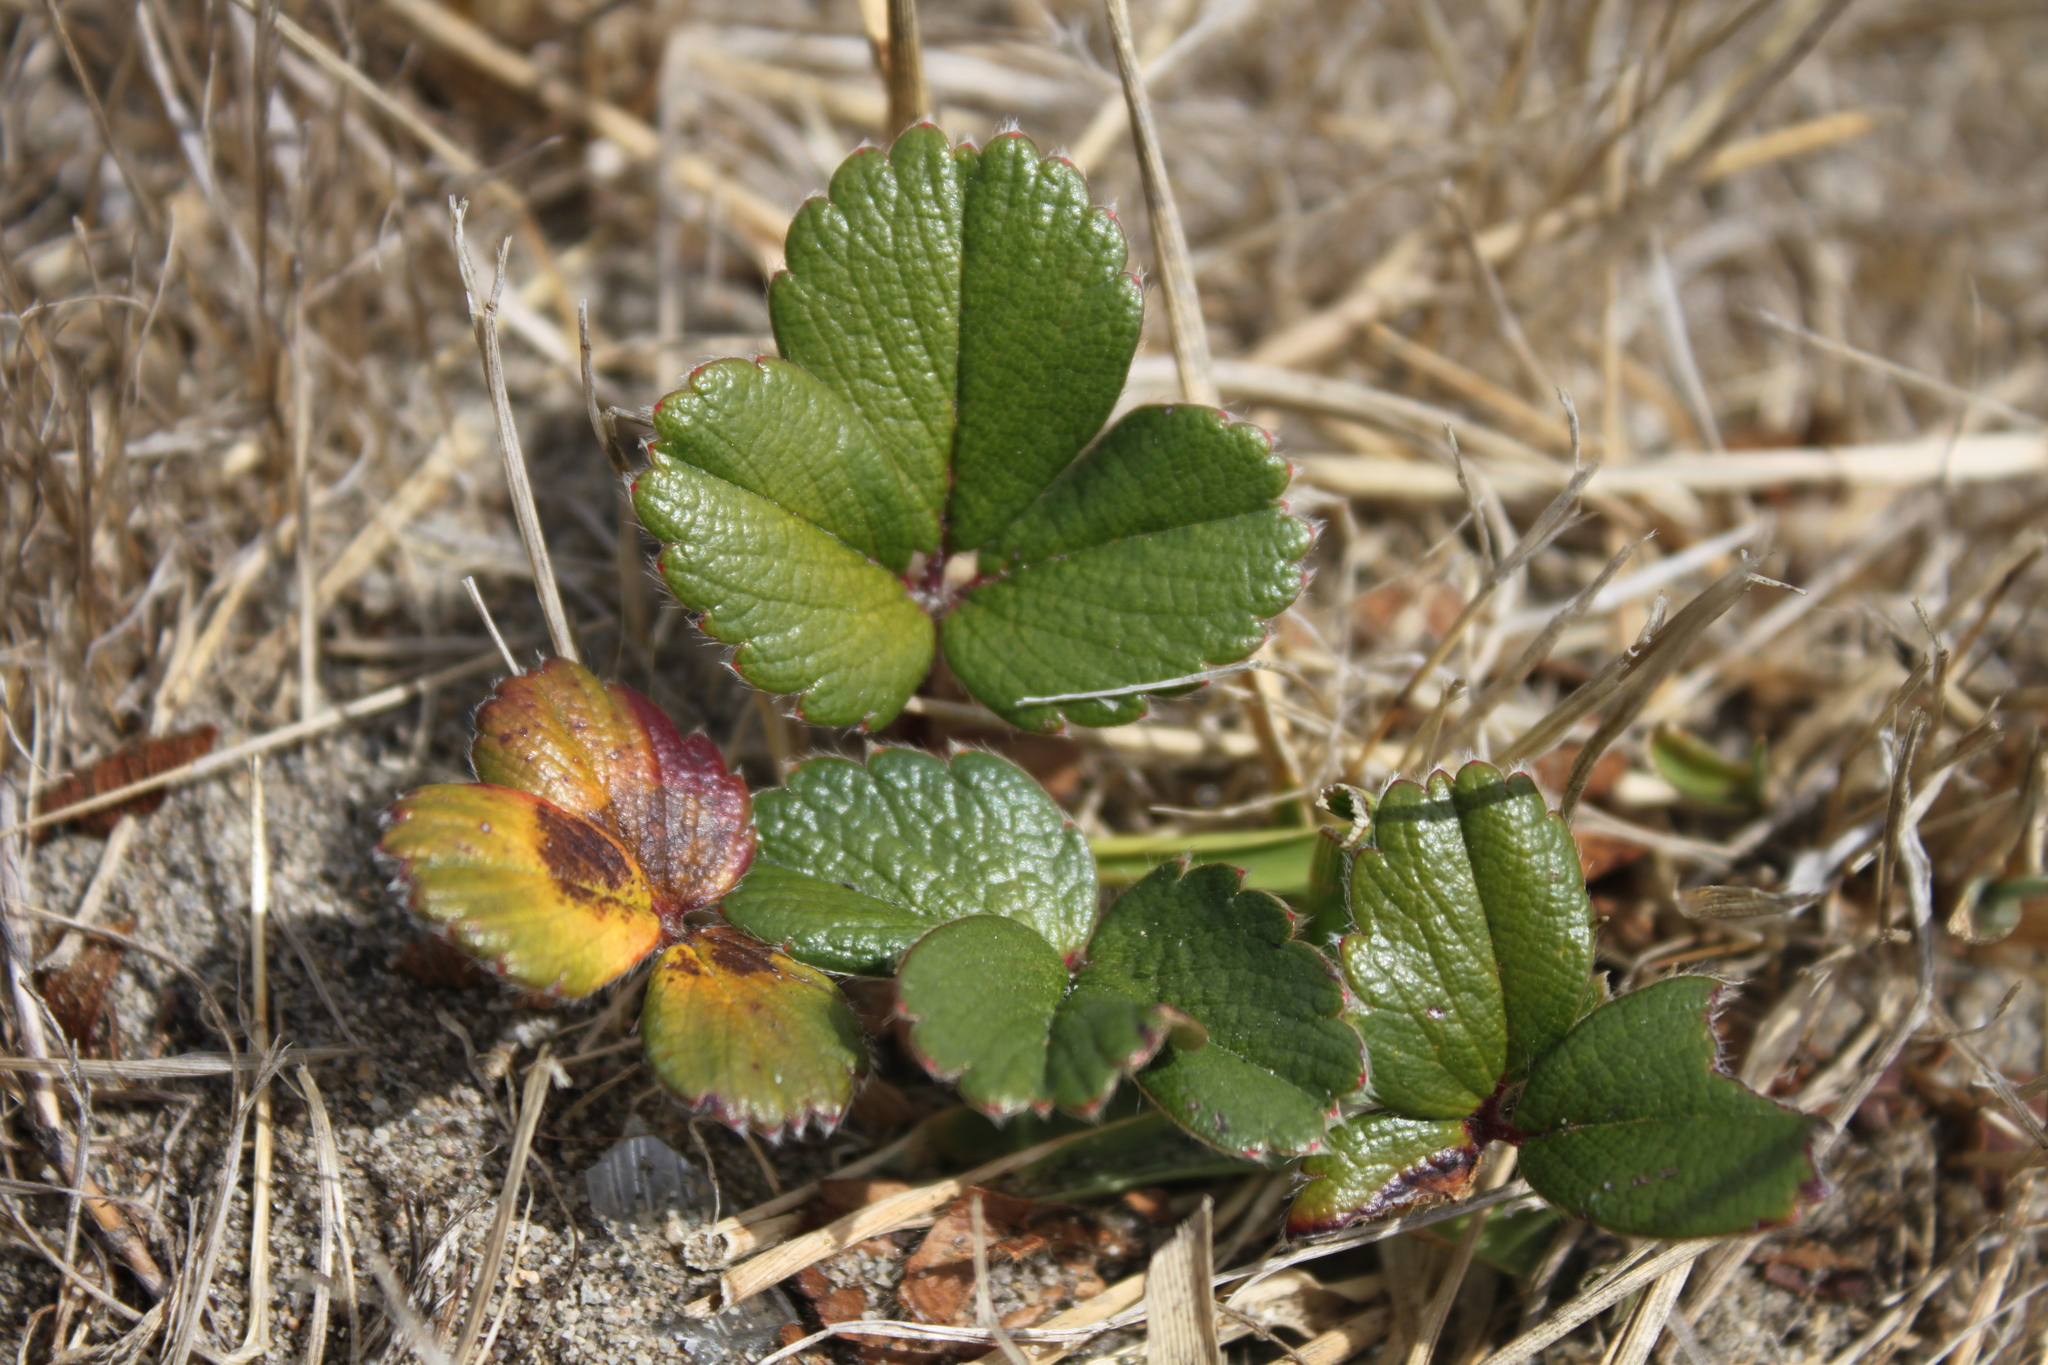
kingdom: Plantae
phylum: Tracheophyta
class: Magnoliopsida
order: Rosales
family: Rosaceae
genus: Fragaria
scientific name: Fragaria chiloensis
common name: Beach strawberry
